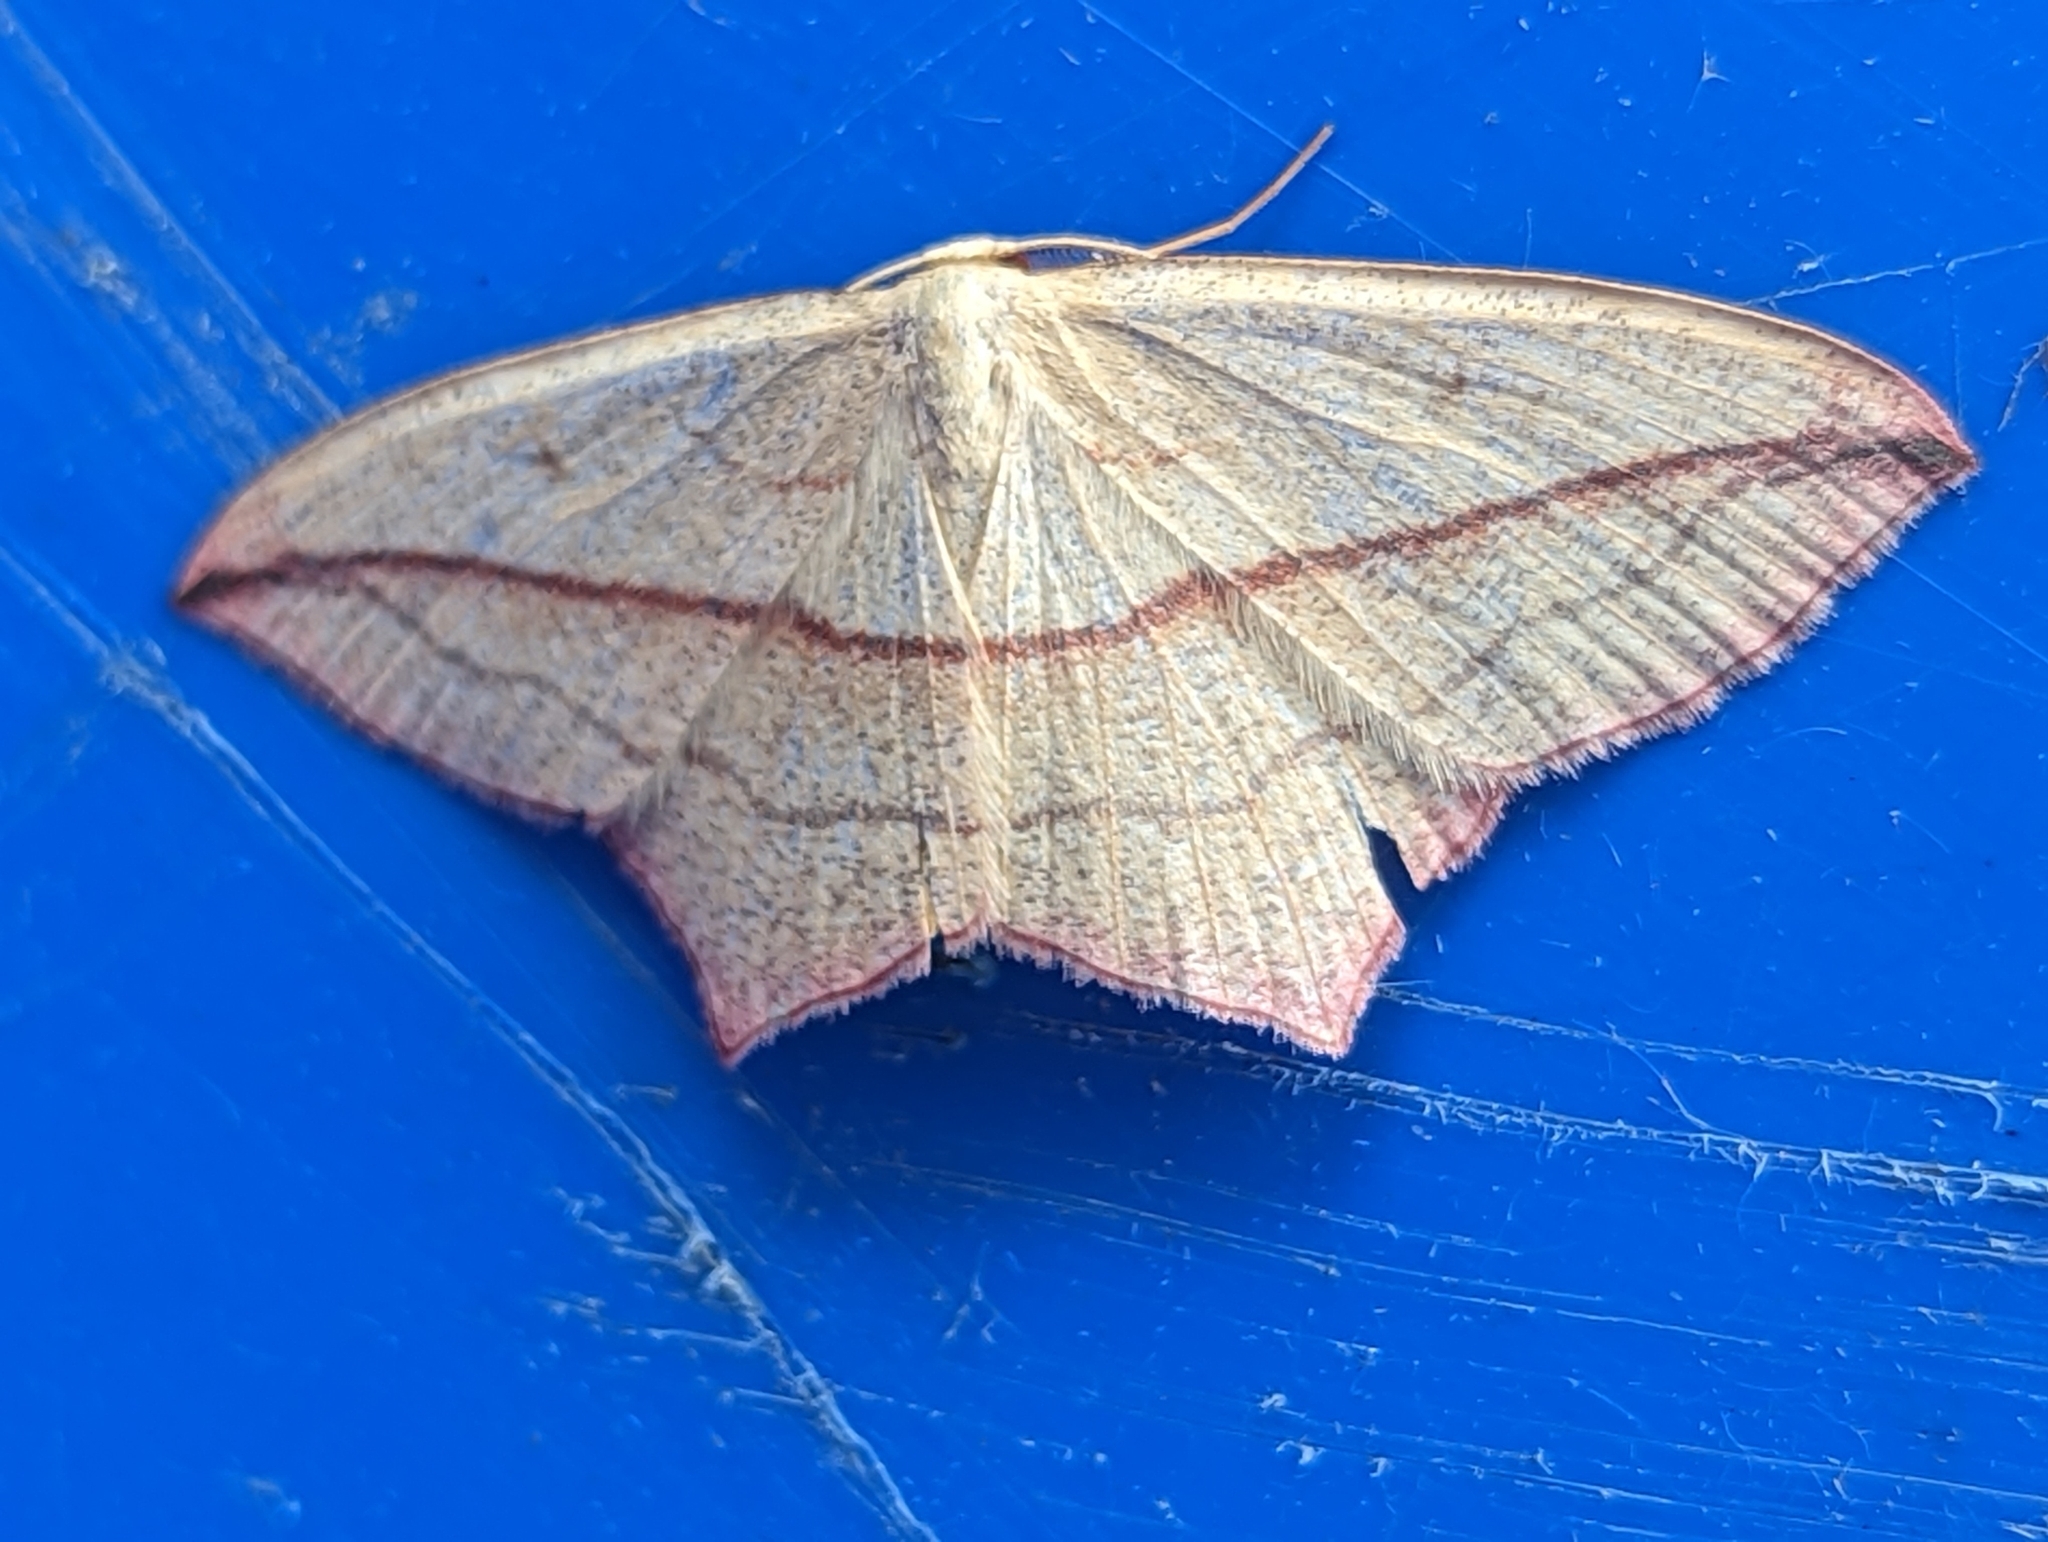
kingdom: Animalia
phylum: Arthropoda
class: Insecta
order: Lepidoptera
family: Geometridae
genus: Timandra
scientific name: Timandra comae
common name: Blood-vein
